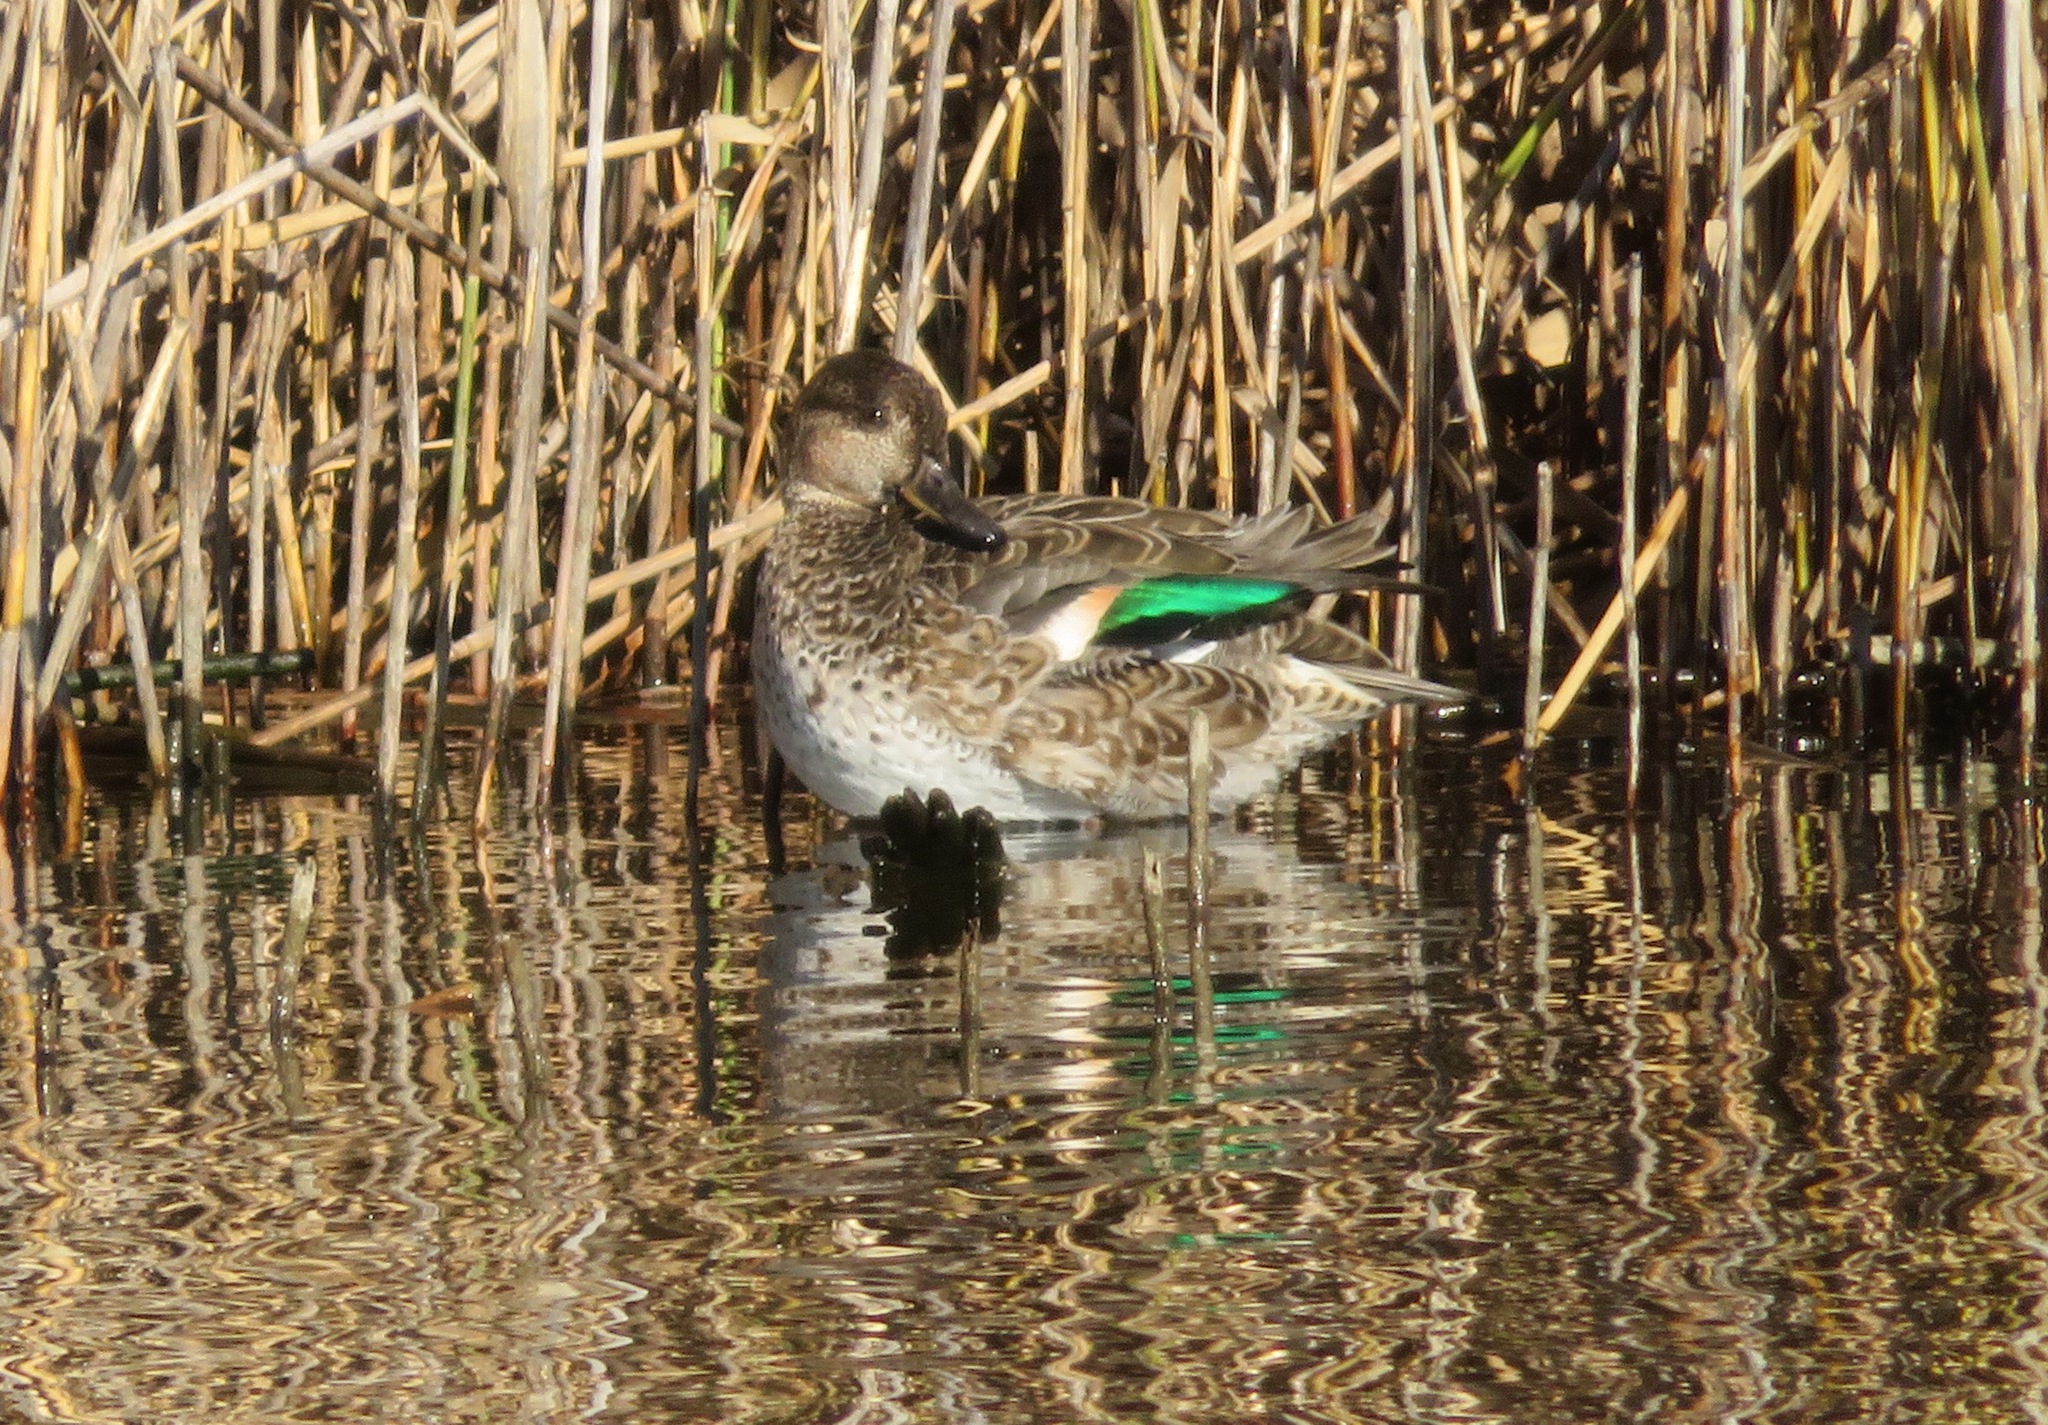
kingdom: Animalia
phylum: Chordata
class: Aves
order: Anseriformes
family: Anatidae
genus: Anas
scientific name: Anas crecca
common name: Eurasian teal
